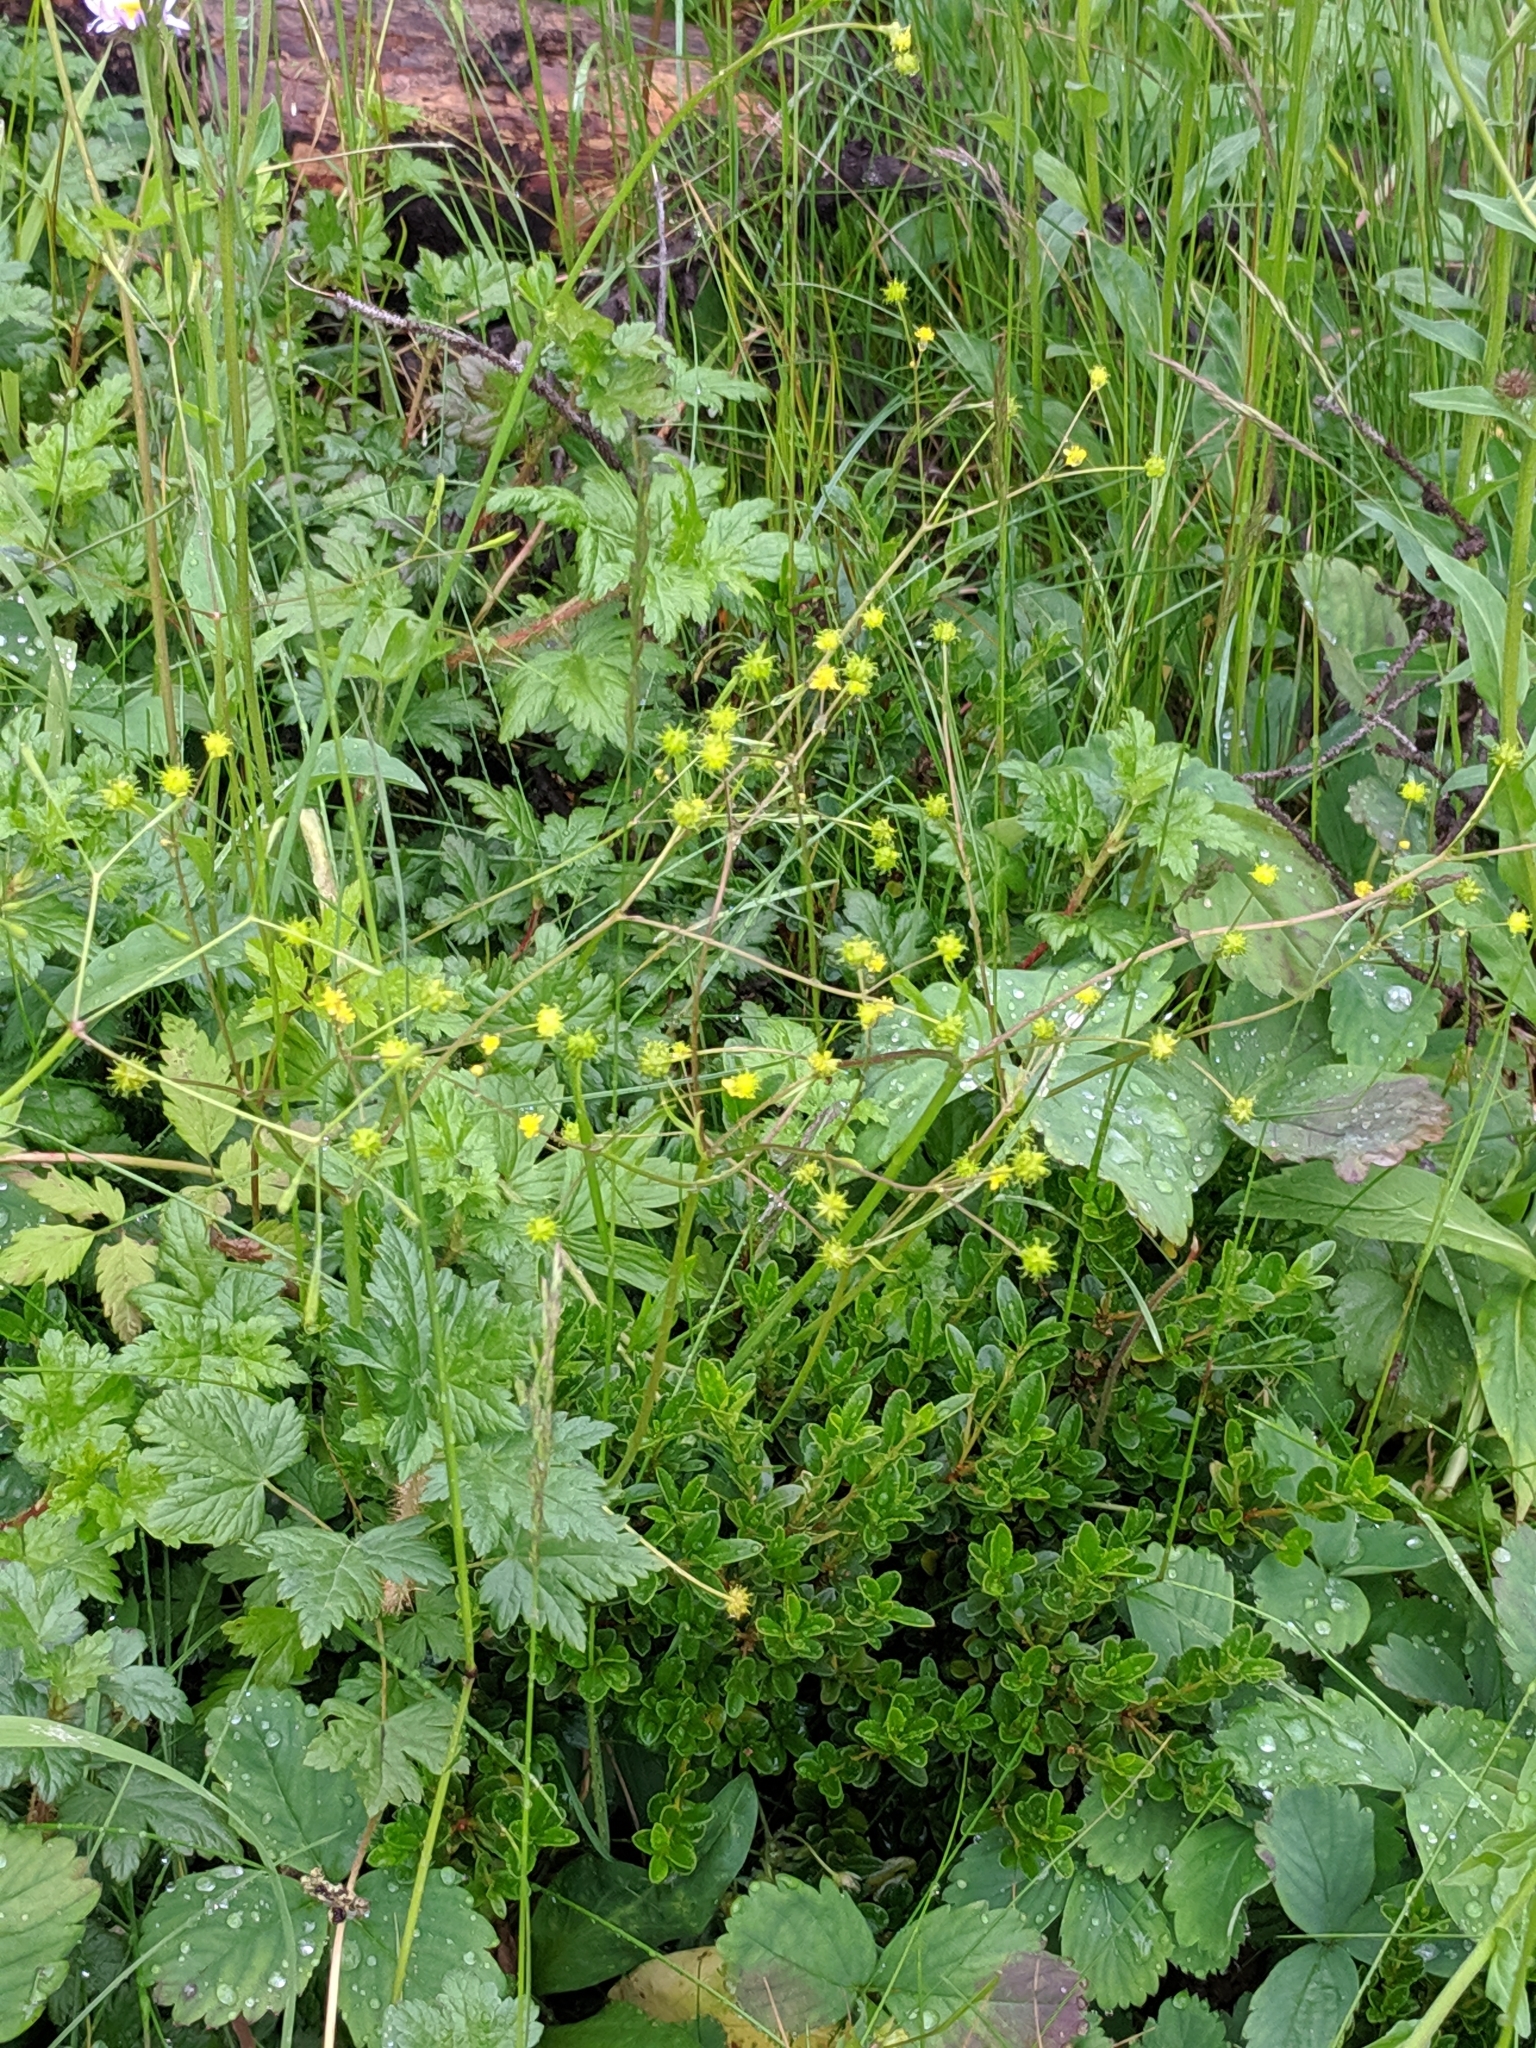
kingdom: Plantae
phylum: Tracheophyta
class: Magnoliopsida
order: Ranunculales
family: Ranunculaceae
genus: Ranunculus
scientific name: Ranunculus uncinatus
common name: Little buttercup
